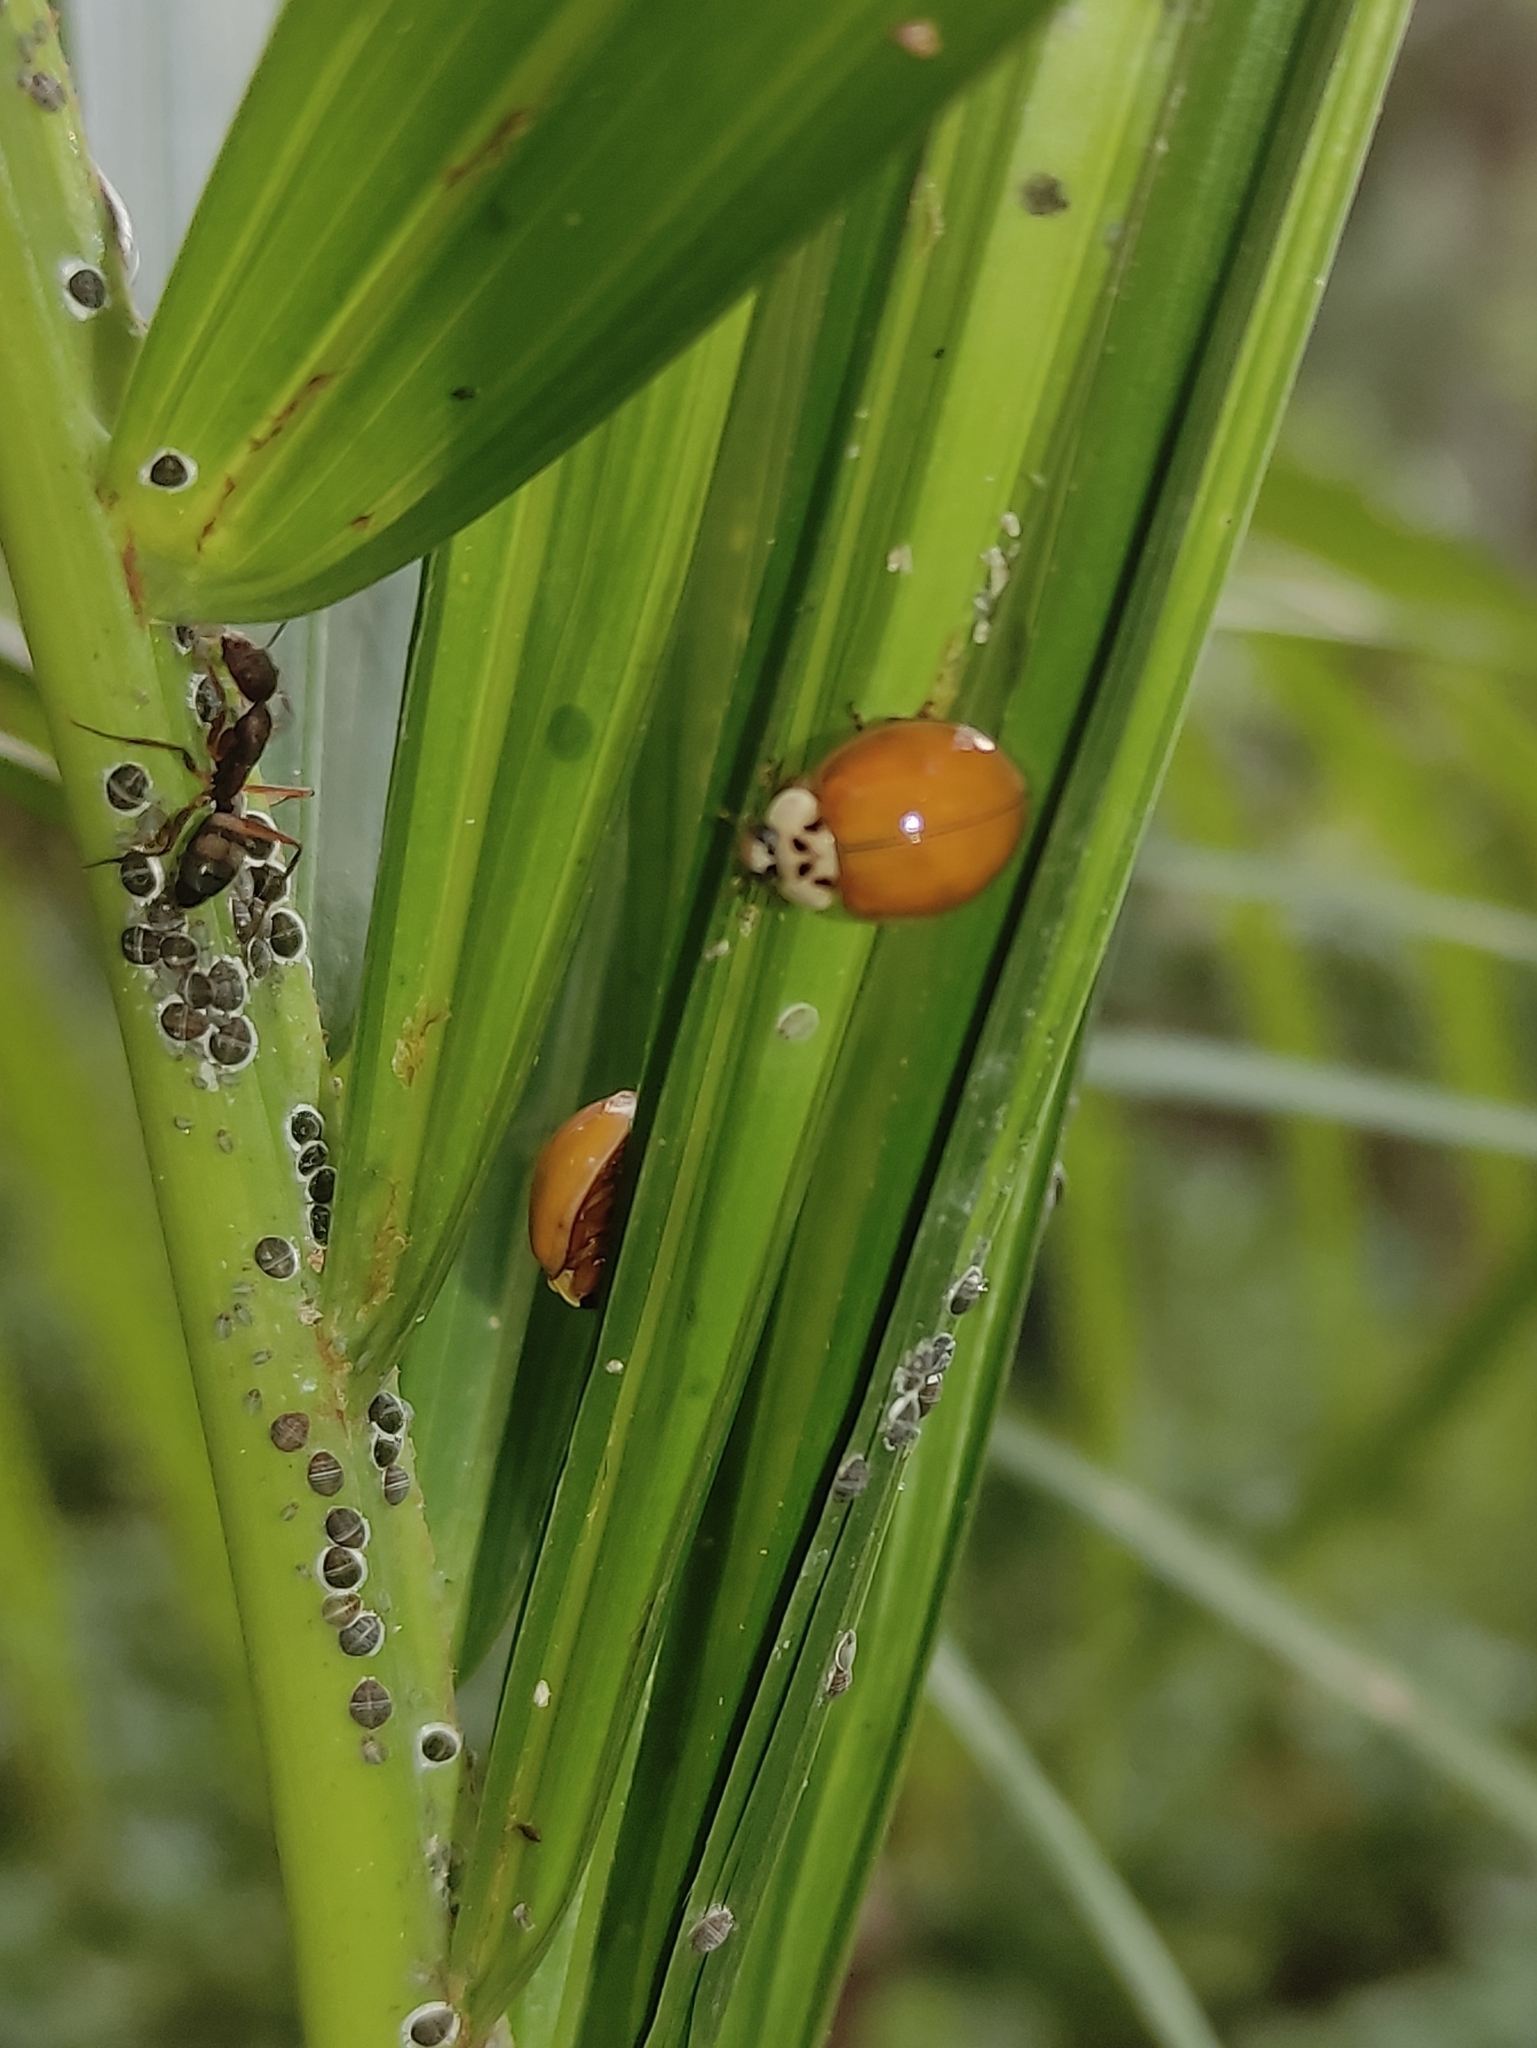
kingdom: Animalia
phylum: Arthropoda
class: Insecta
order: Coleoptera
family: Coccinellidae
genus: Harmonia
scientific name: Harmonia axyridis
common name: Harlequin ladybird
